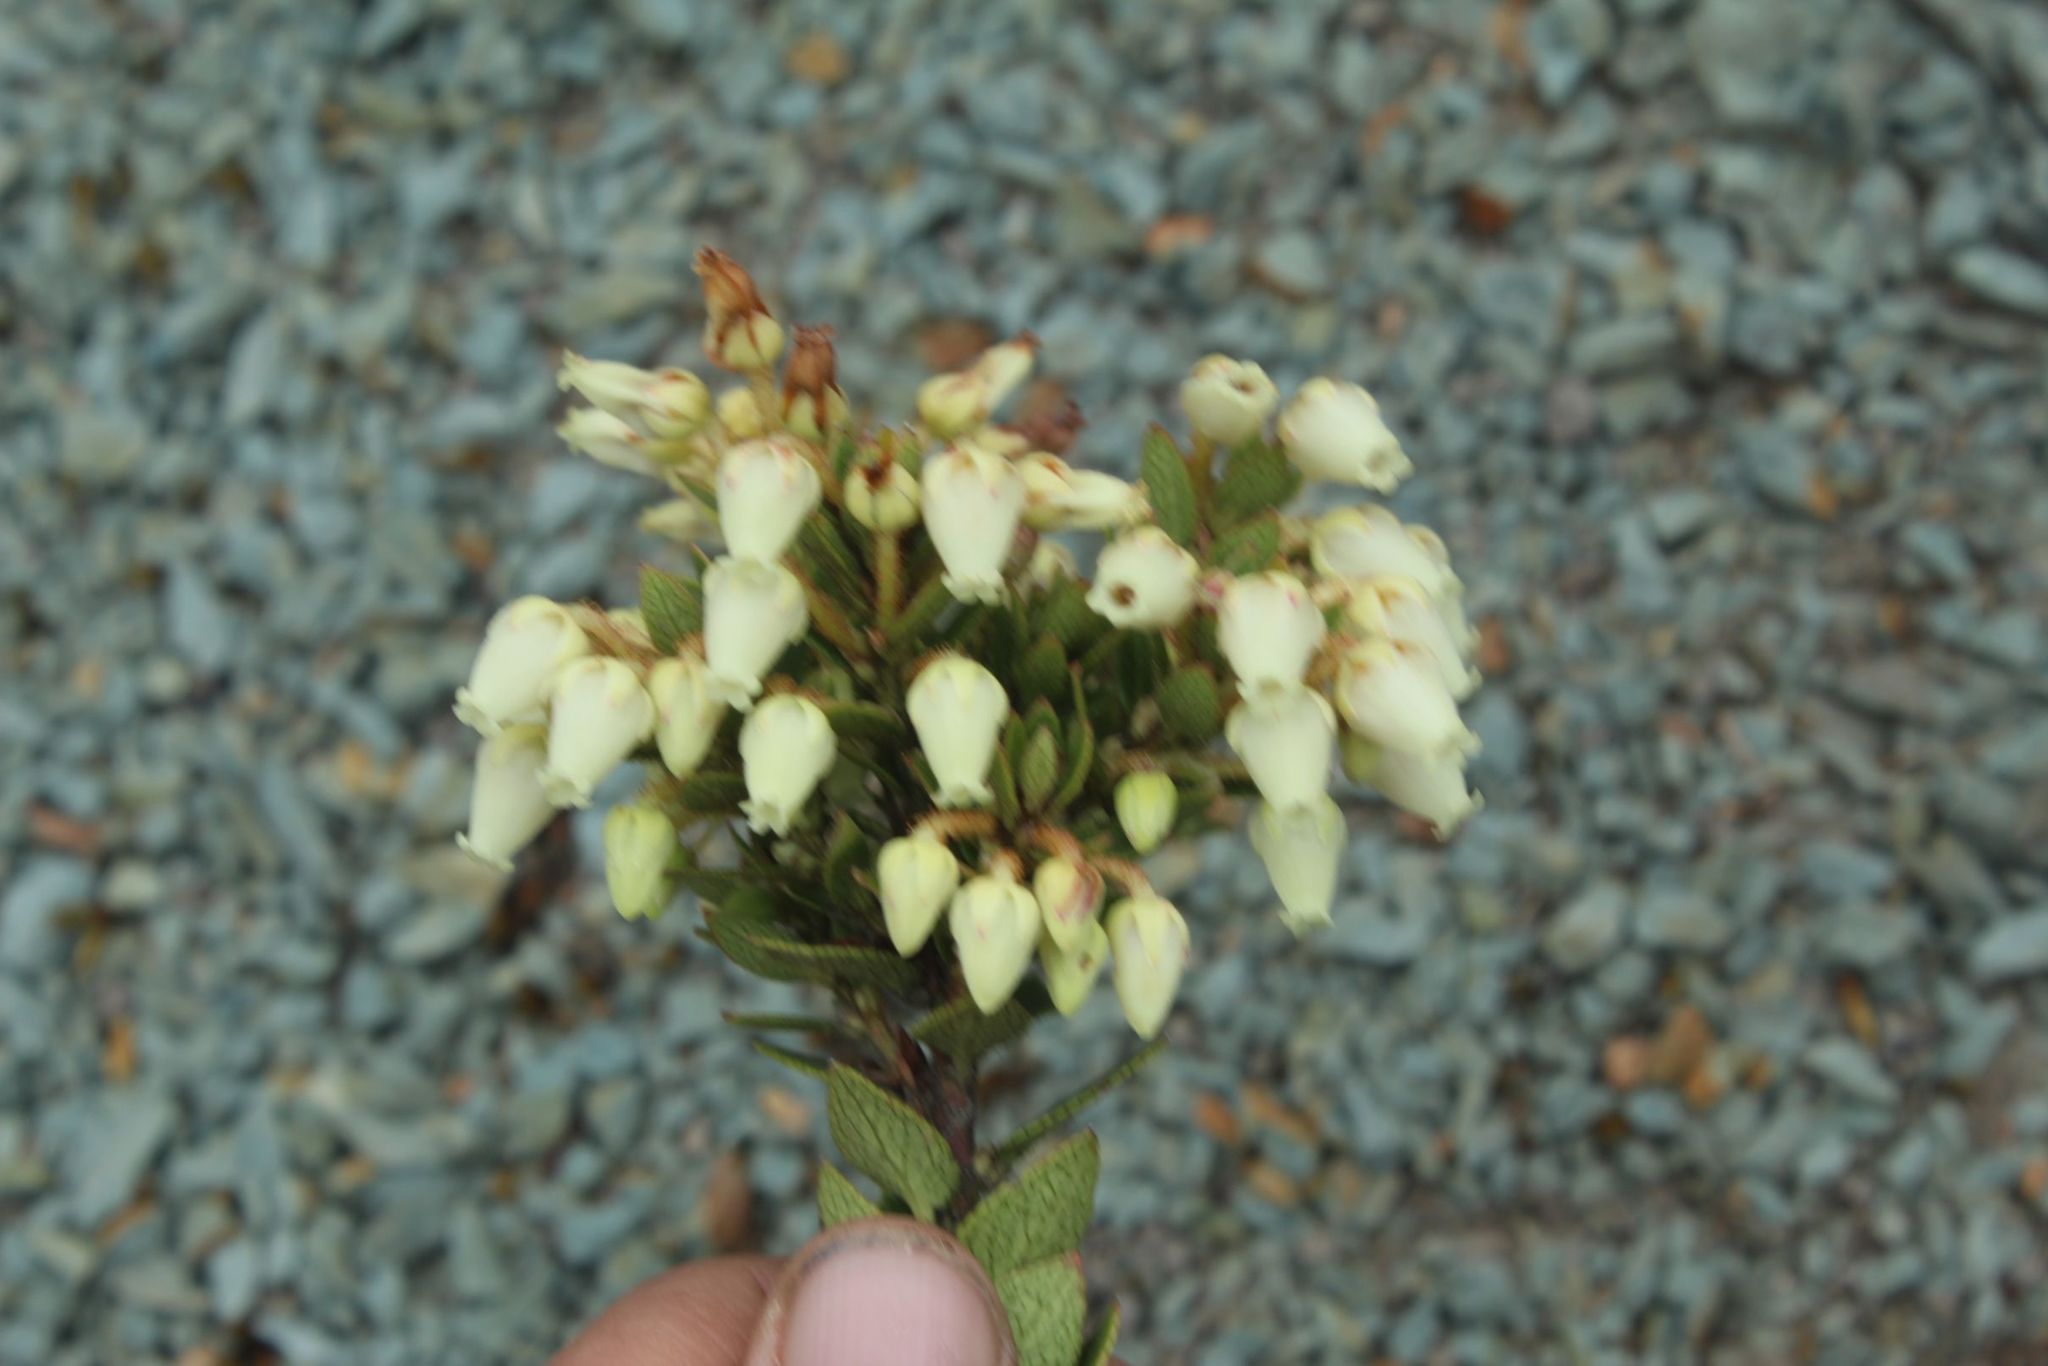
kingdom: Plantae
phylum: Tracheophyta
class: Magnoliopsida
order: Ericales
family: Ericaceae
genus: Gaultheria
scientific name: Gaultheria anastomosans
